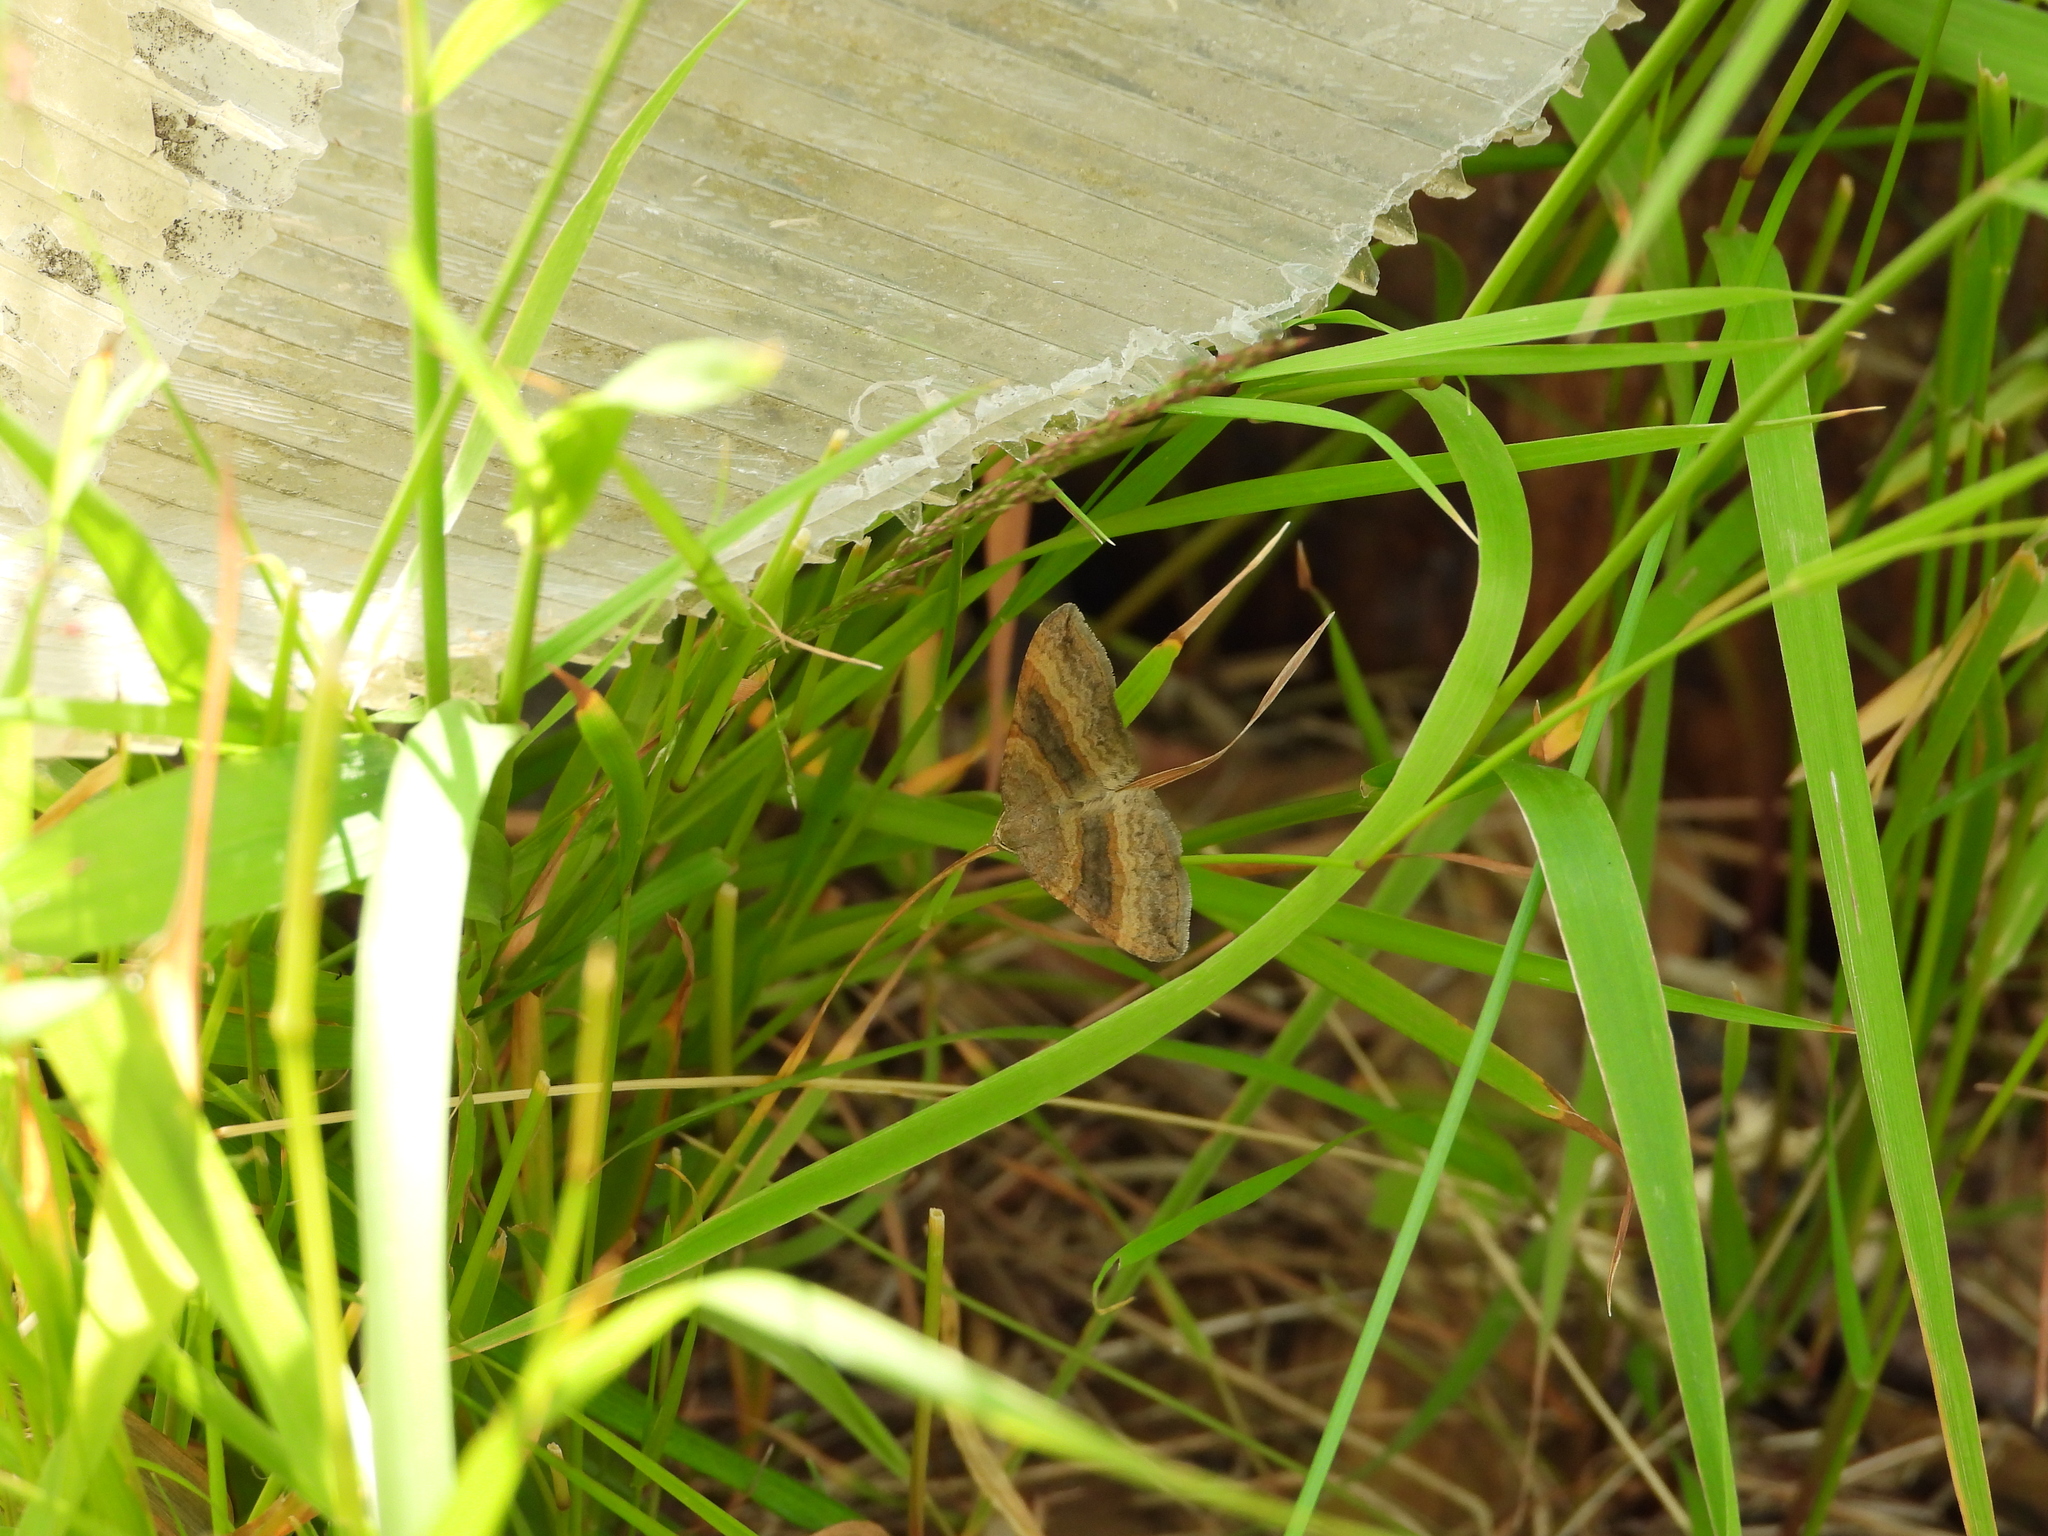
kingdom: Animalia
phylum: Arthropoda
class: Insecta
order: Lepidoptera
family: Geometridae
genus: Scotopteryx
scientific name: Scotopteryx chenopodiata
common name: Shaded broad-bar
